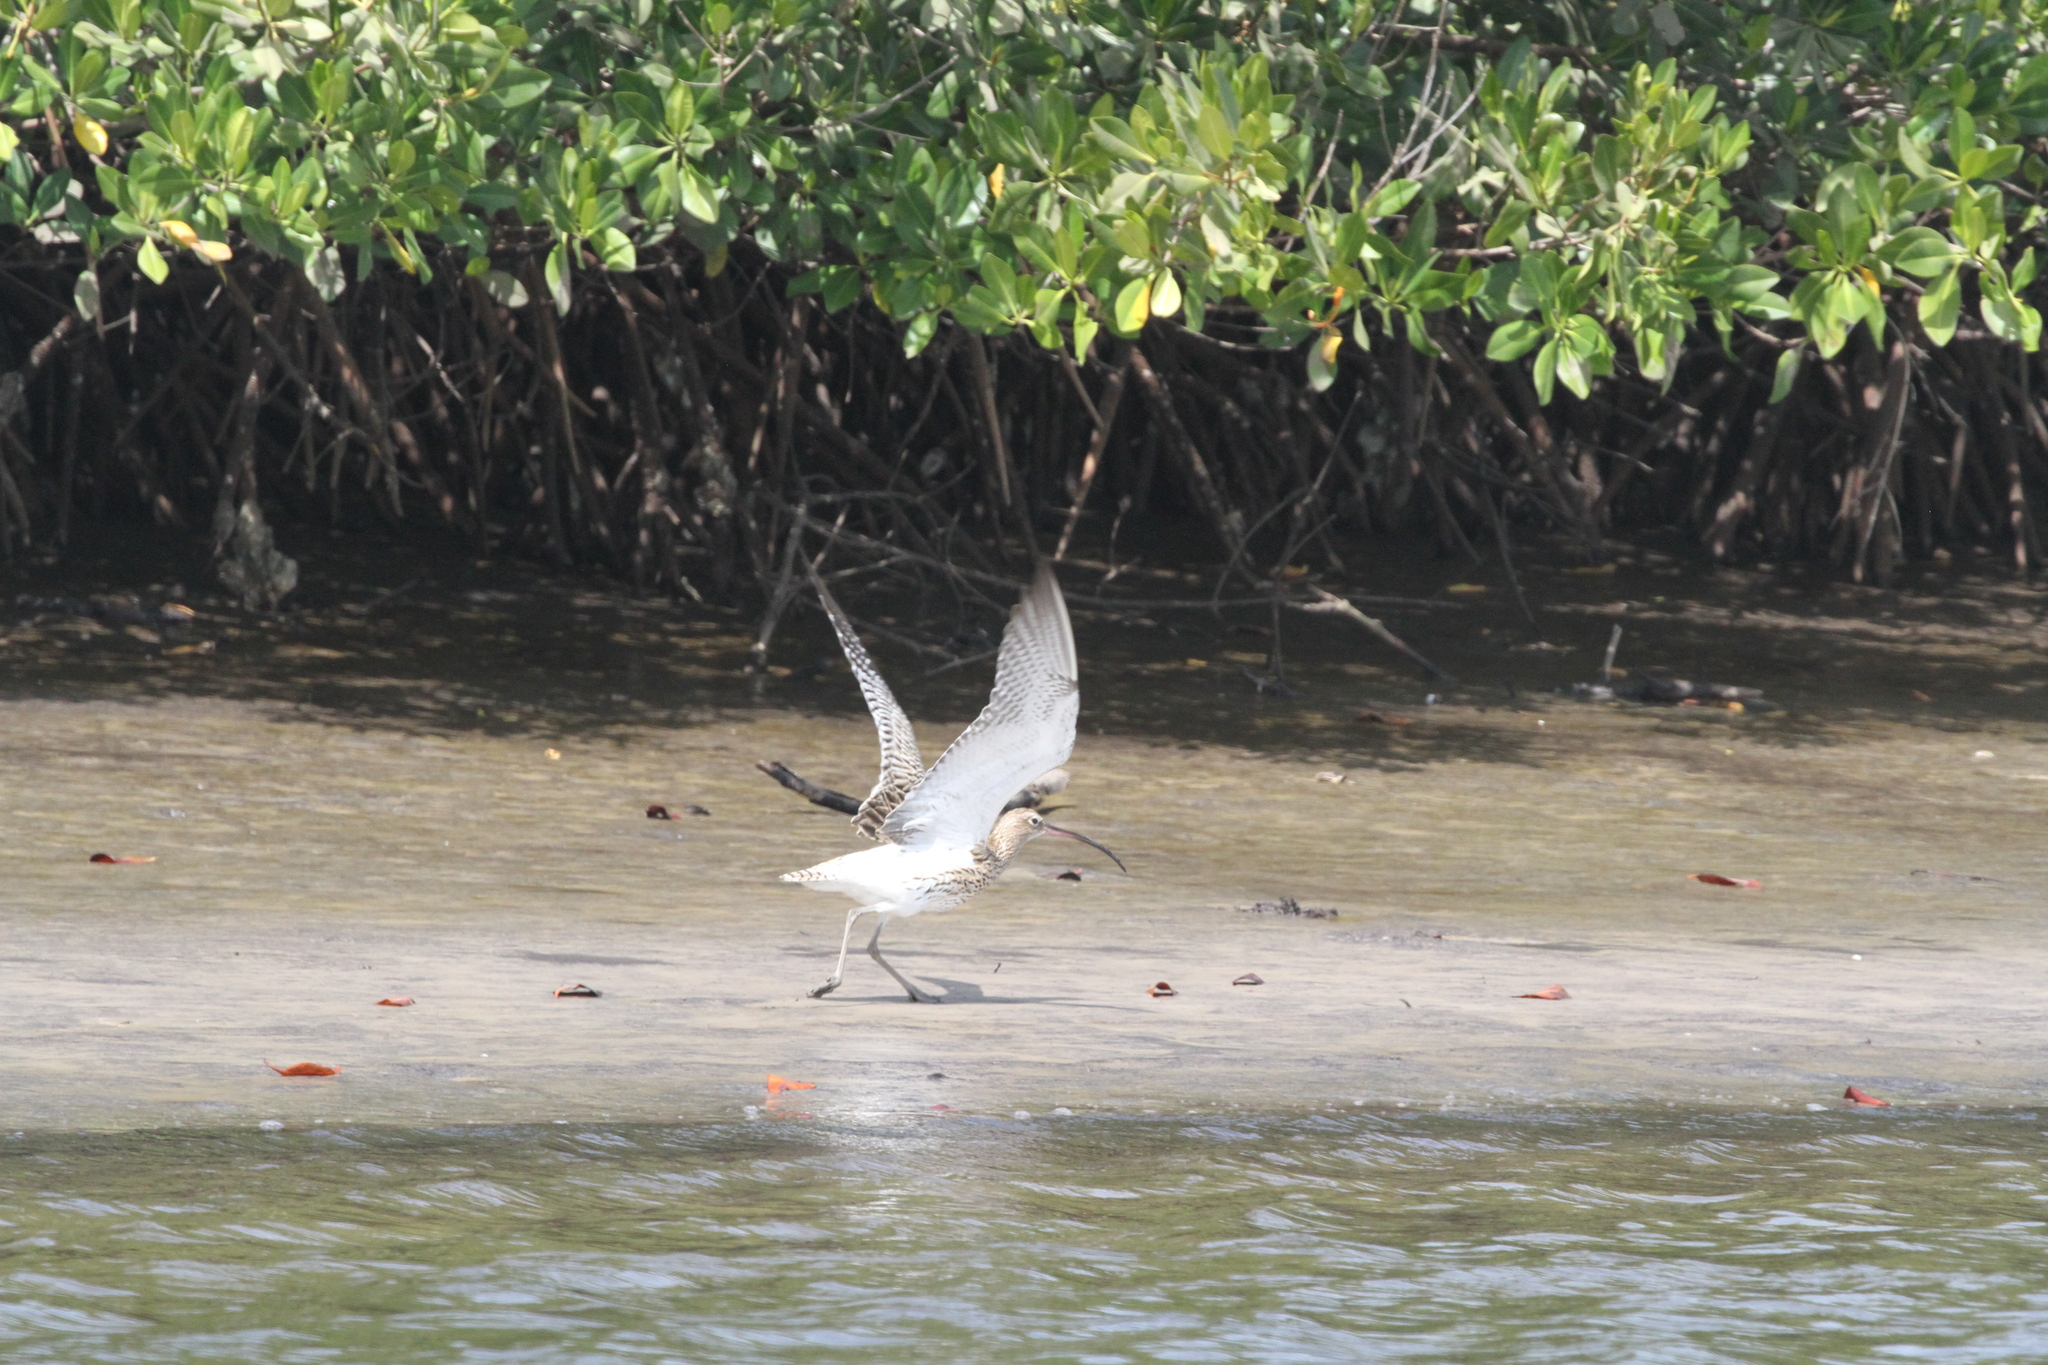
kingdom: Animalia
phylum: Chordata
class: Aves
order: Charadriiformes
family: Scolopacidae
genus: Numenius
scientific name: Numenius phaeopus
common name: Whimbrel
